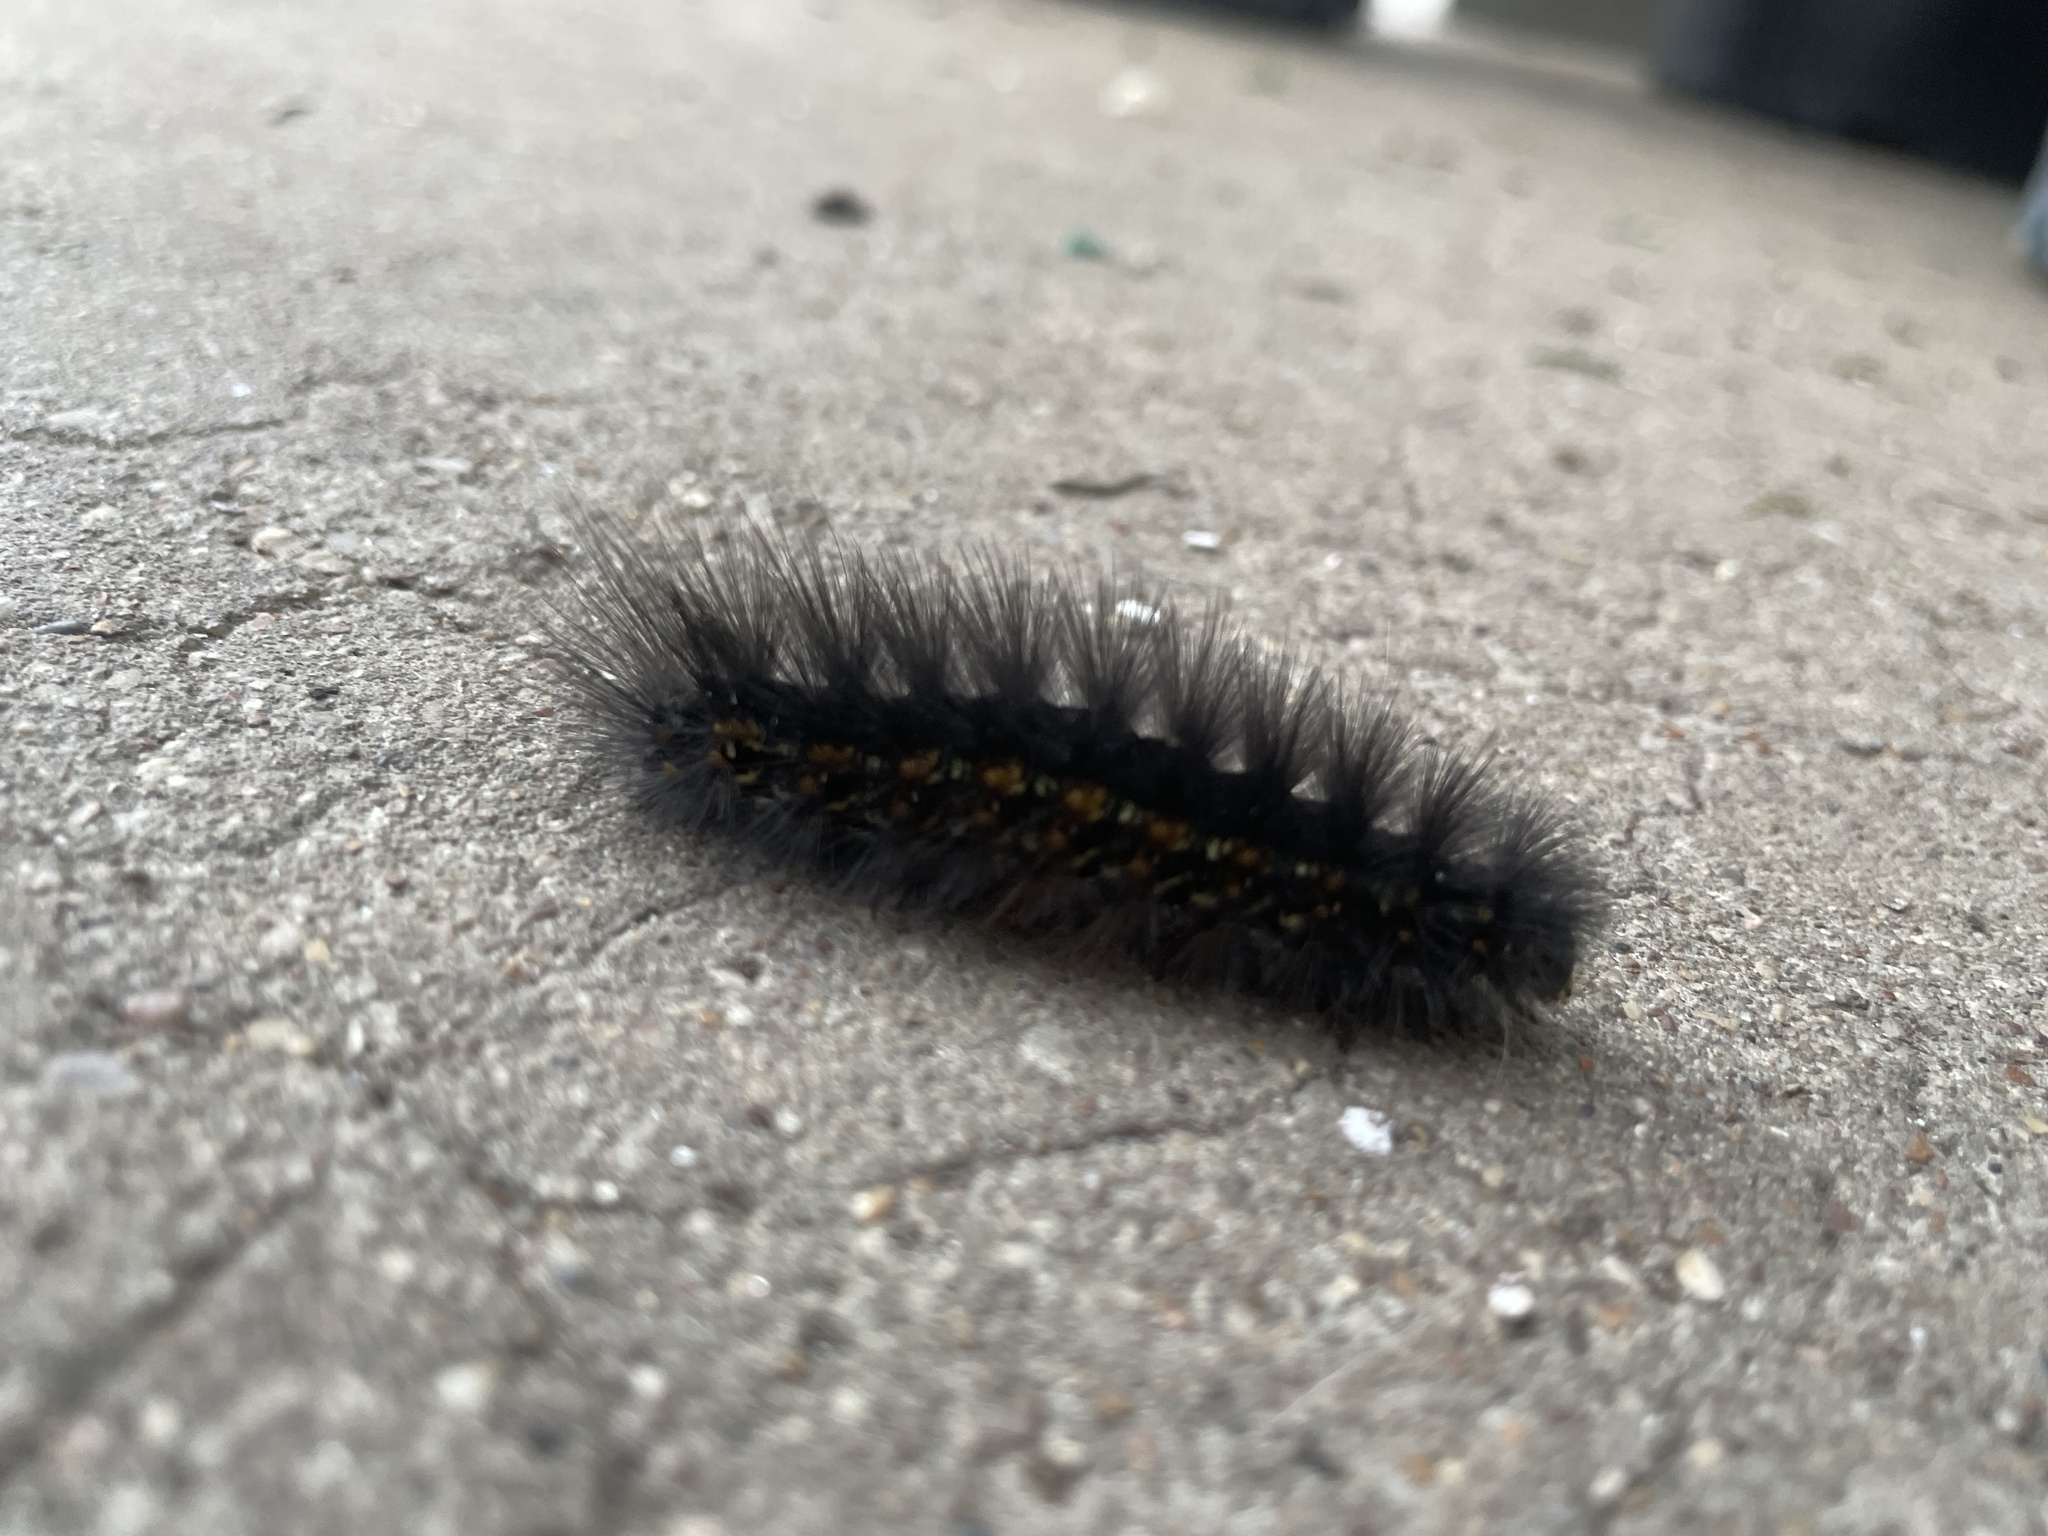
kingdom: Animalia
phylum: Arthropoda
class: Insecta
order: Lepidoptera
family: Erebidae
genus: Estigmene
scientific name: Estigmene acrea
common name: Salt marsh moth
